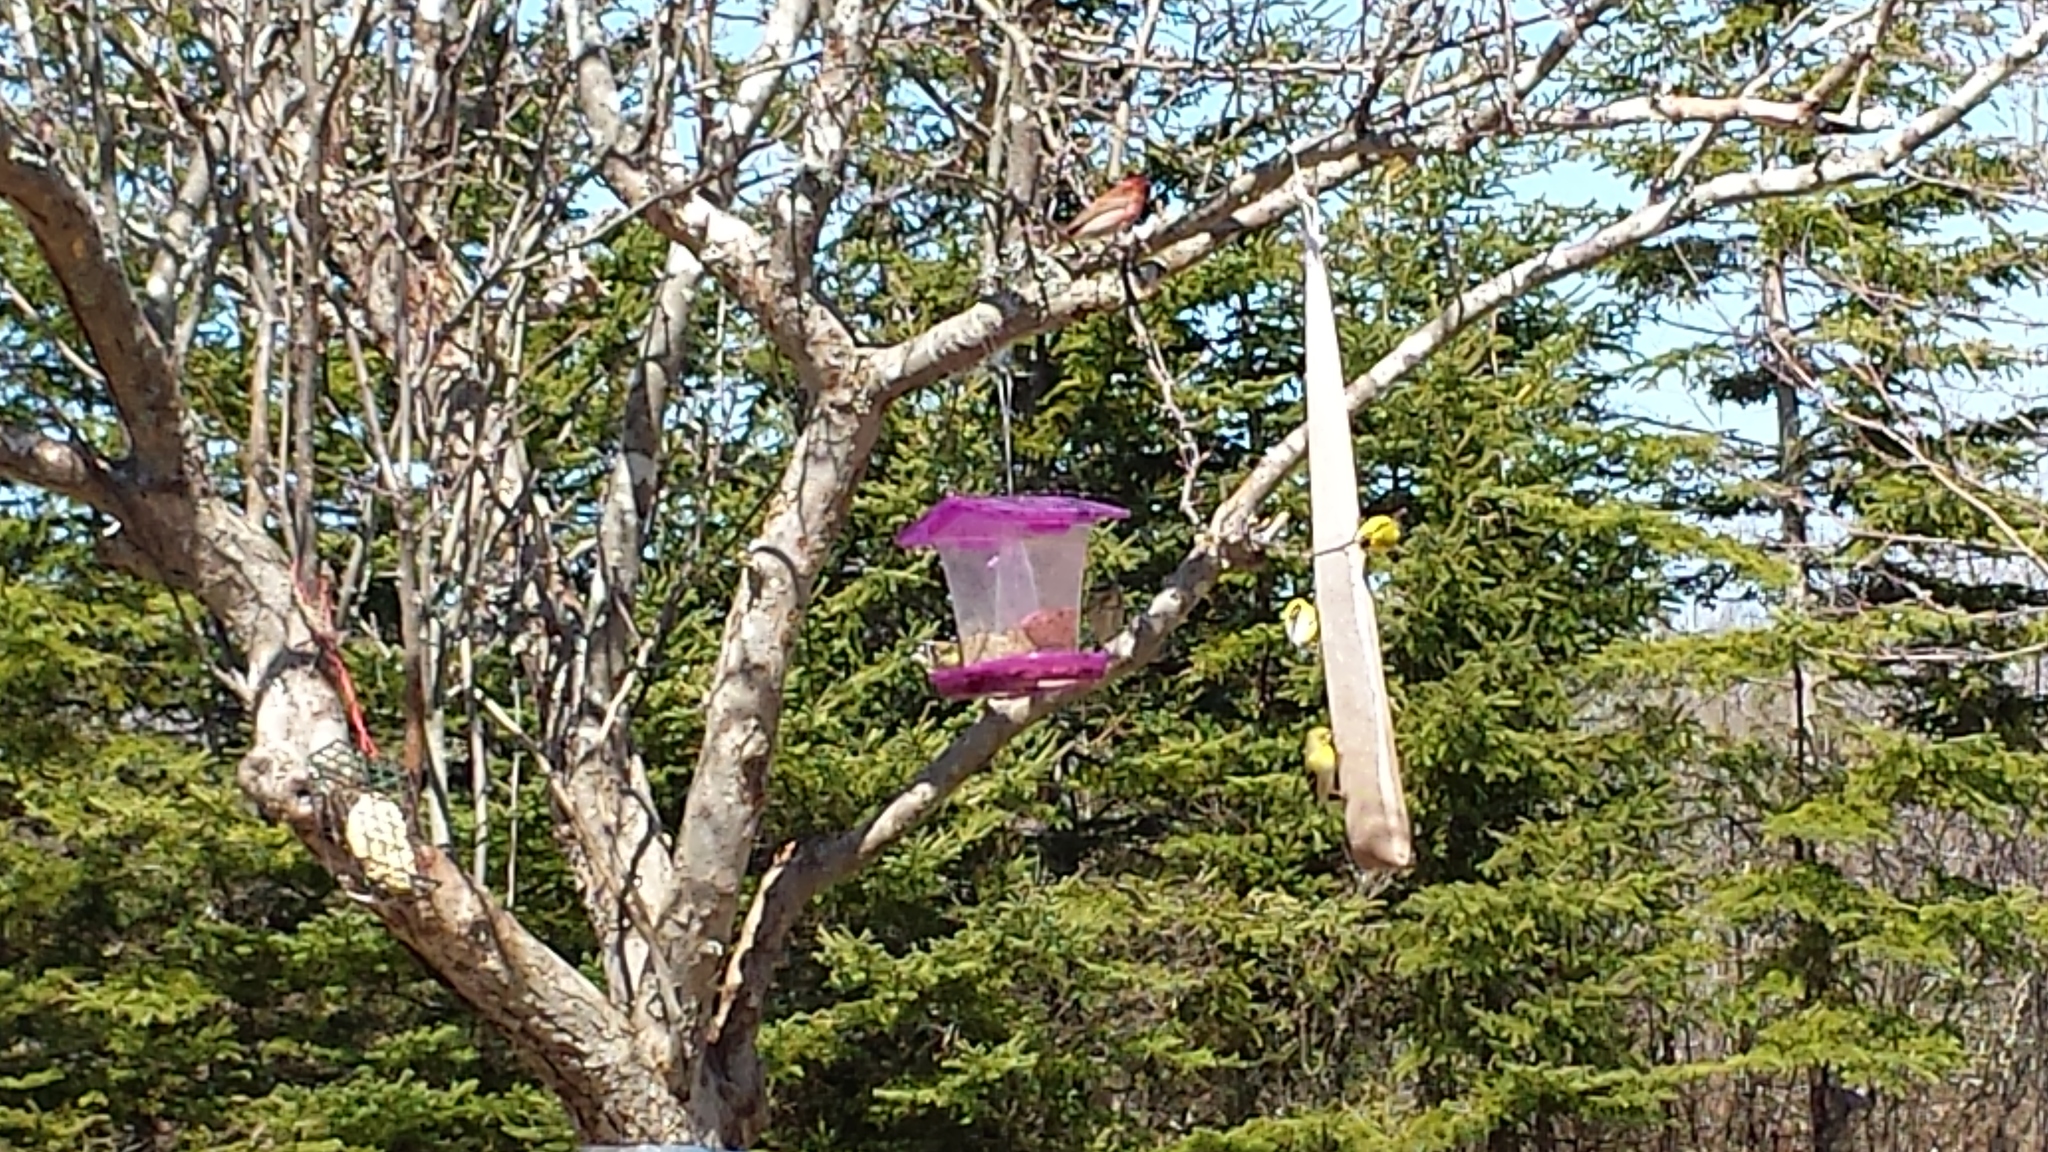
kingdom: Animalia
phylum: Chordata
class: Aves
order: Passeriformes
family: Fringillidae
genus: Haemorhous
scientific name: Haemorhous purpureus
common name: Purple finch
